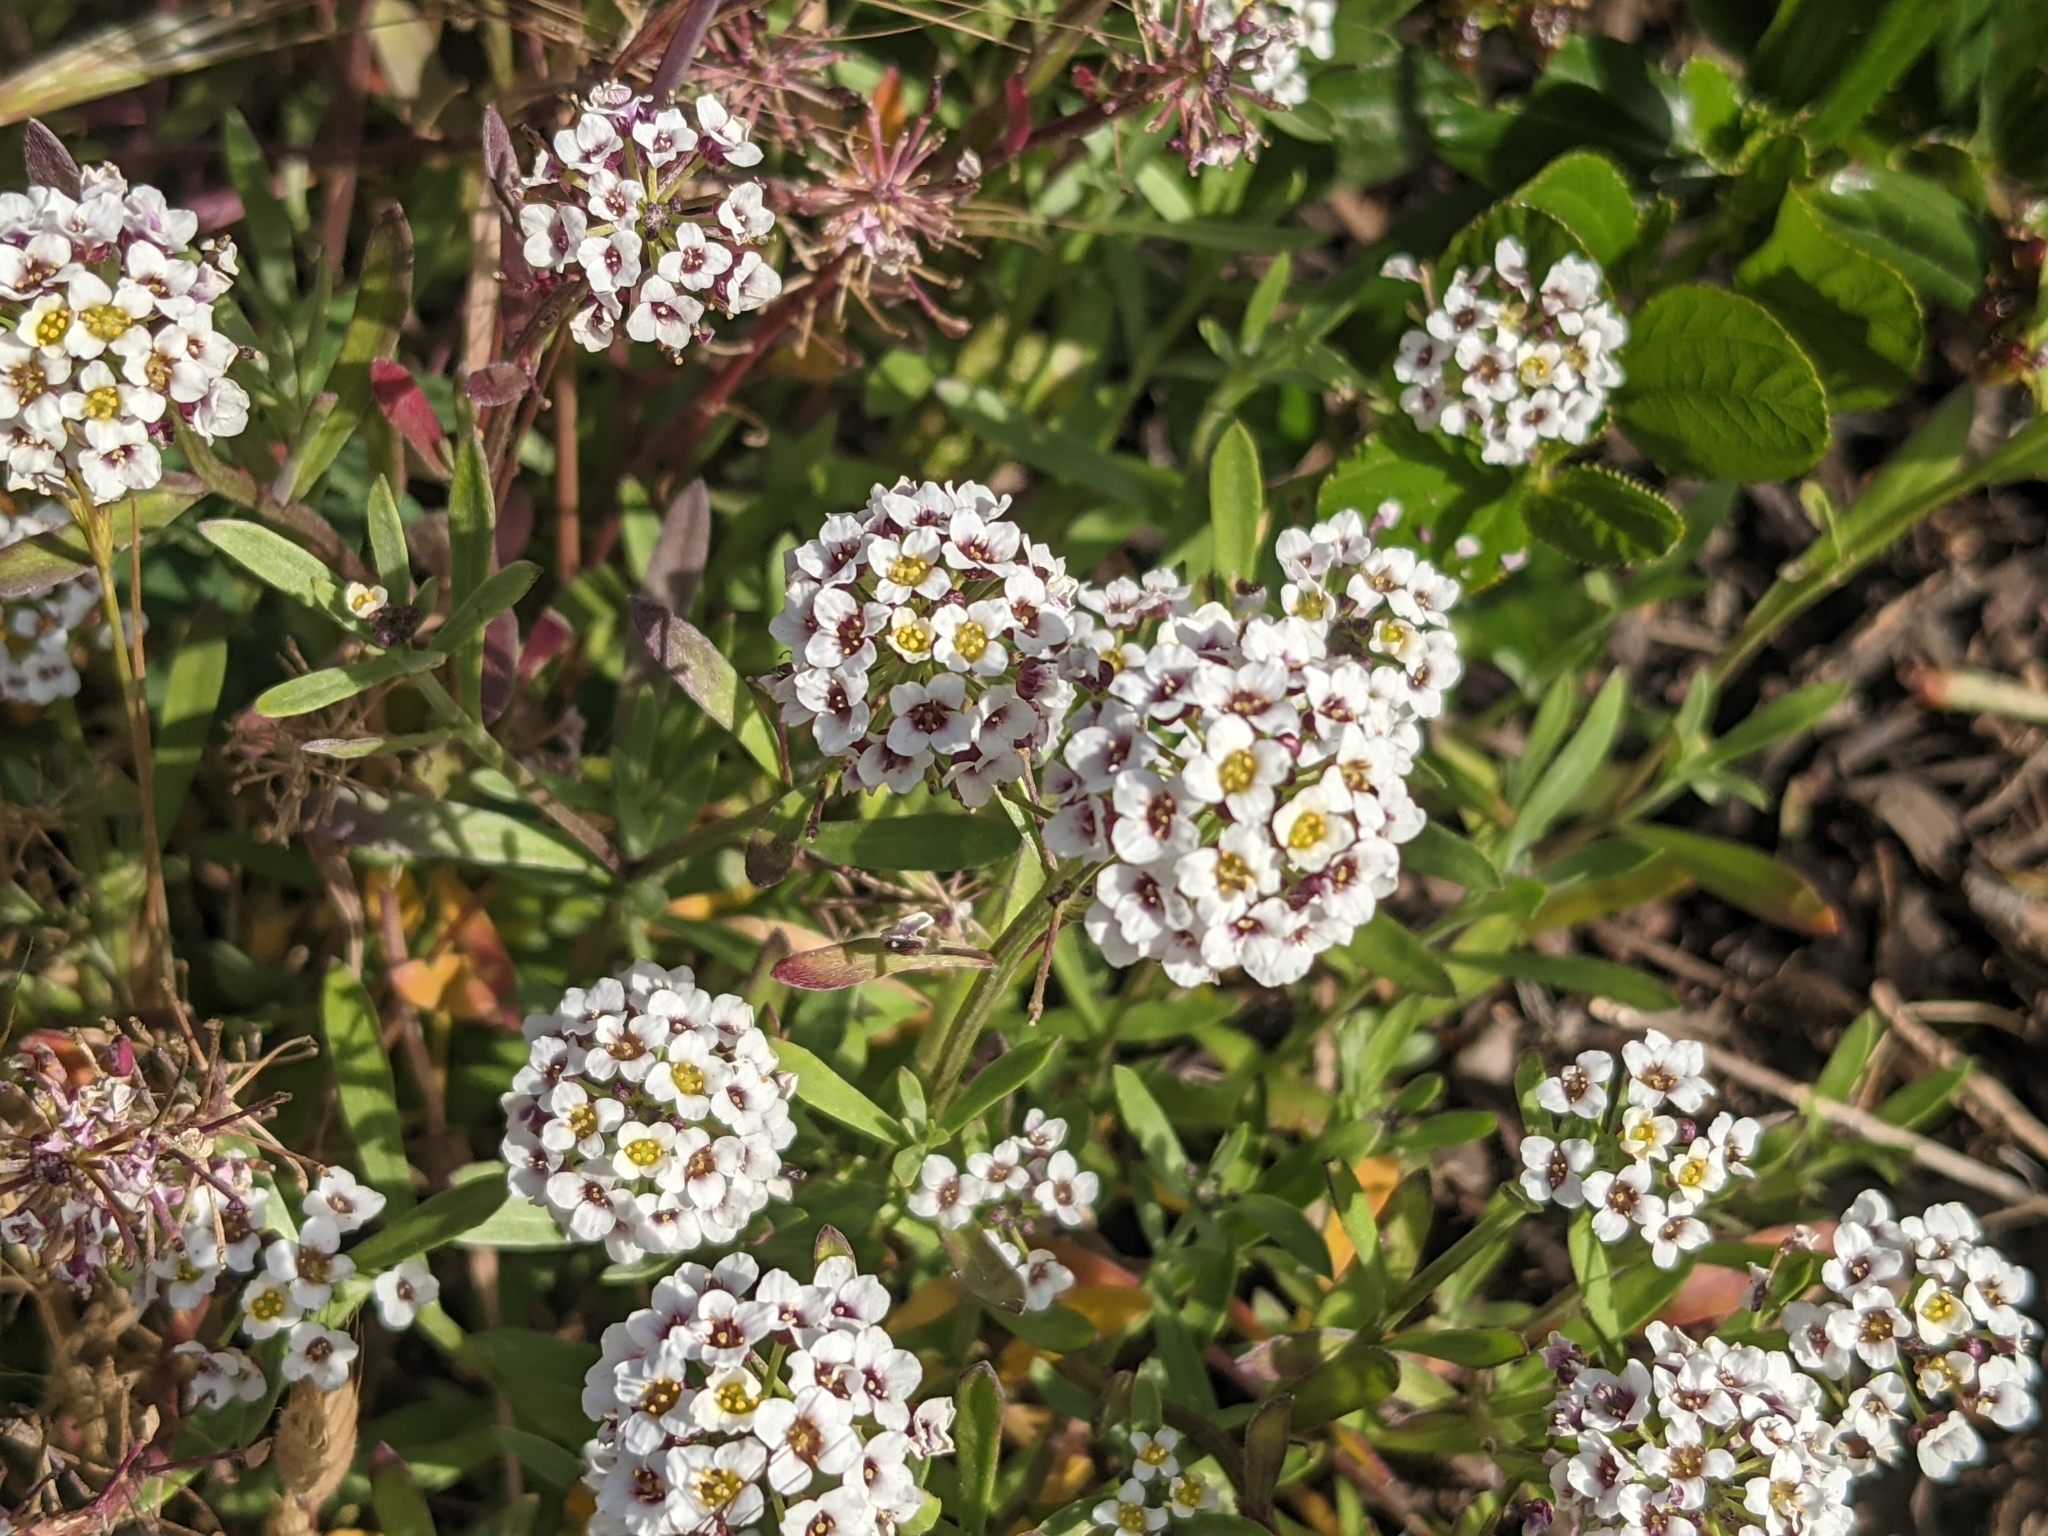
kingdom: Plantae
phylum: Tracheophyta
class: Magnoliopsida
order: Brassicales
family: Brassicaceae
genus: Lobularia
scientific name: Lobularia maritima
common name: Sweet alison
